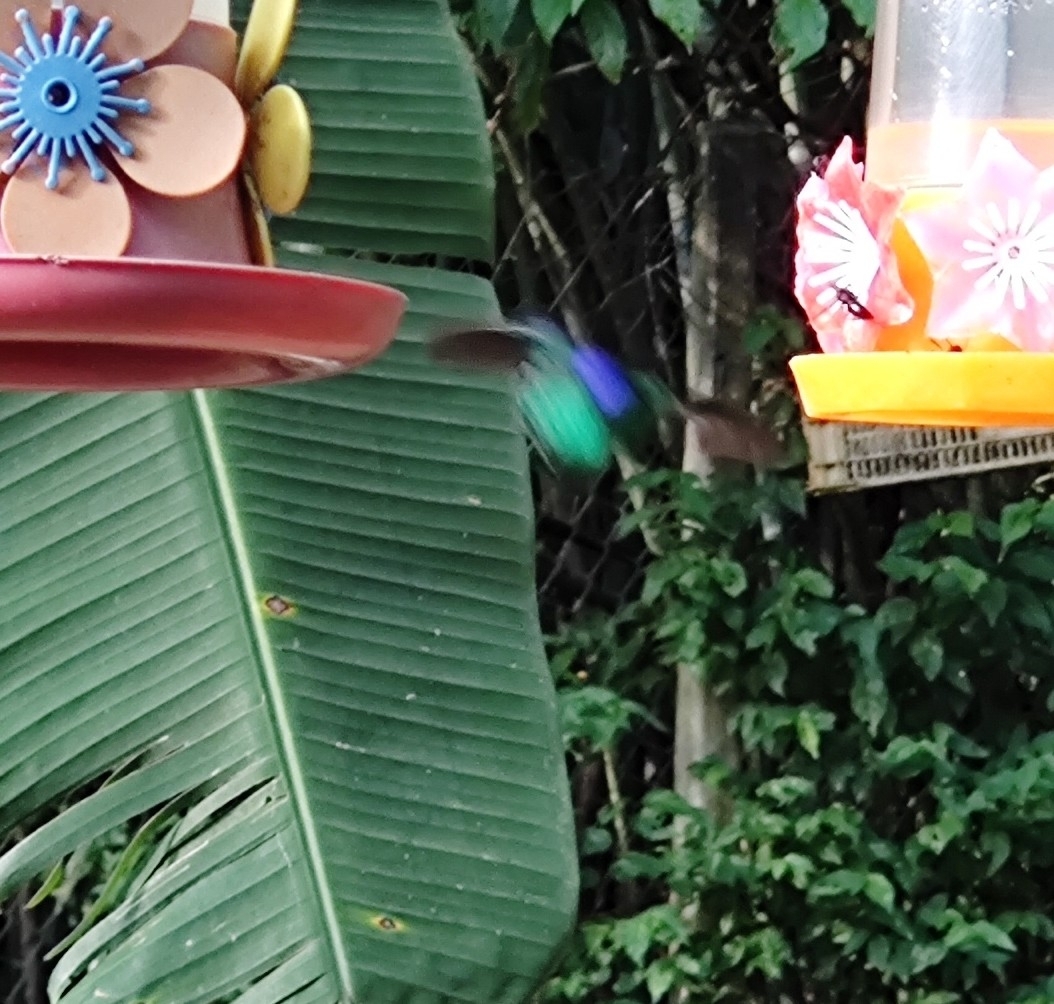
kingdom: Animalia
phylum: Chordata
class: Aves
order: Apodiformes
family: Trochilidae
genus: Thalurania
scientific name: Thalurania glaucopis
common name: Violet-capped woodnymph
